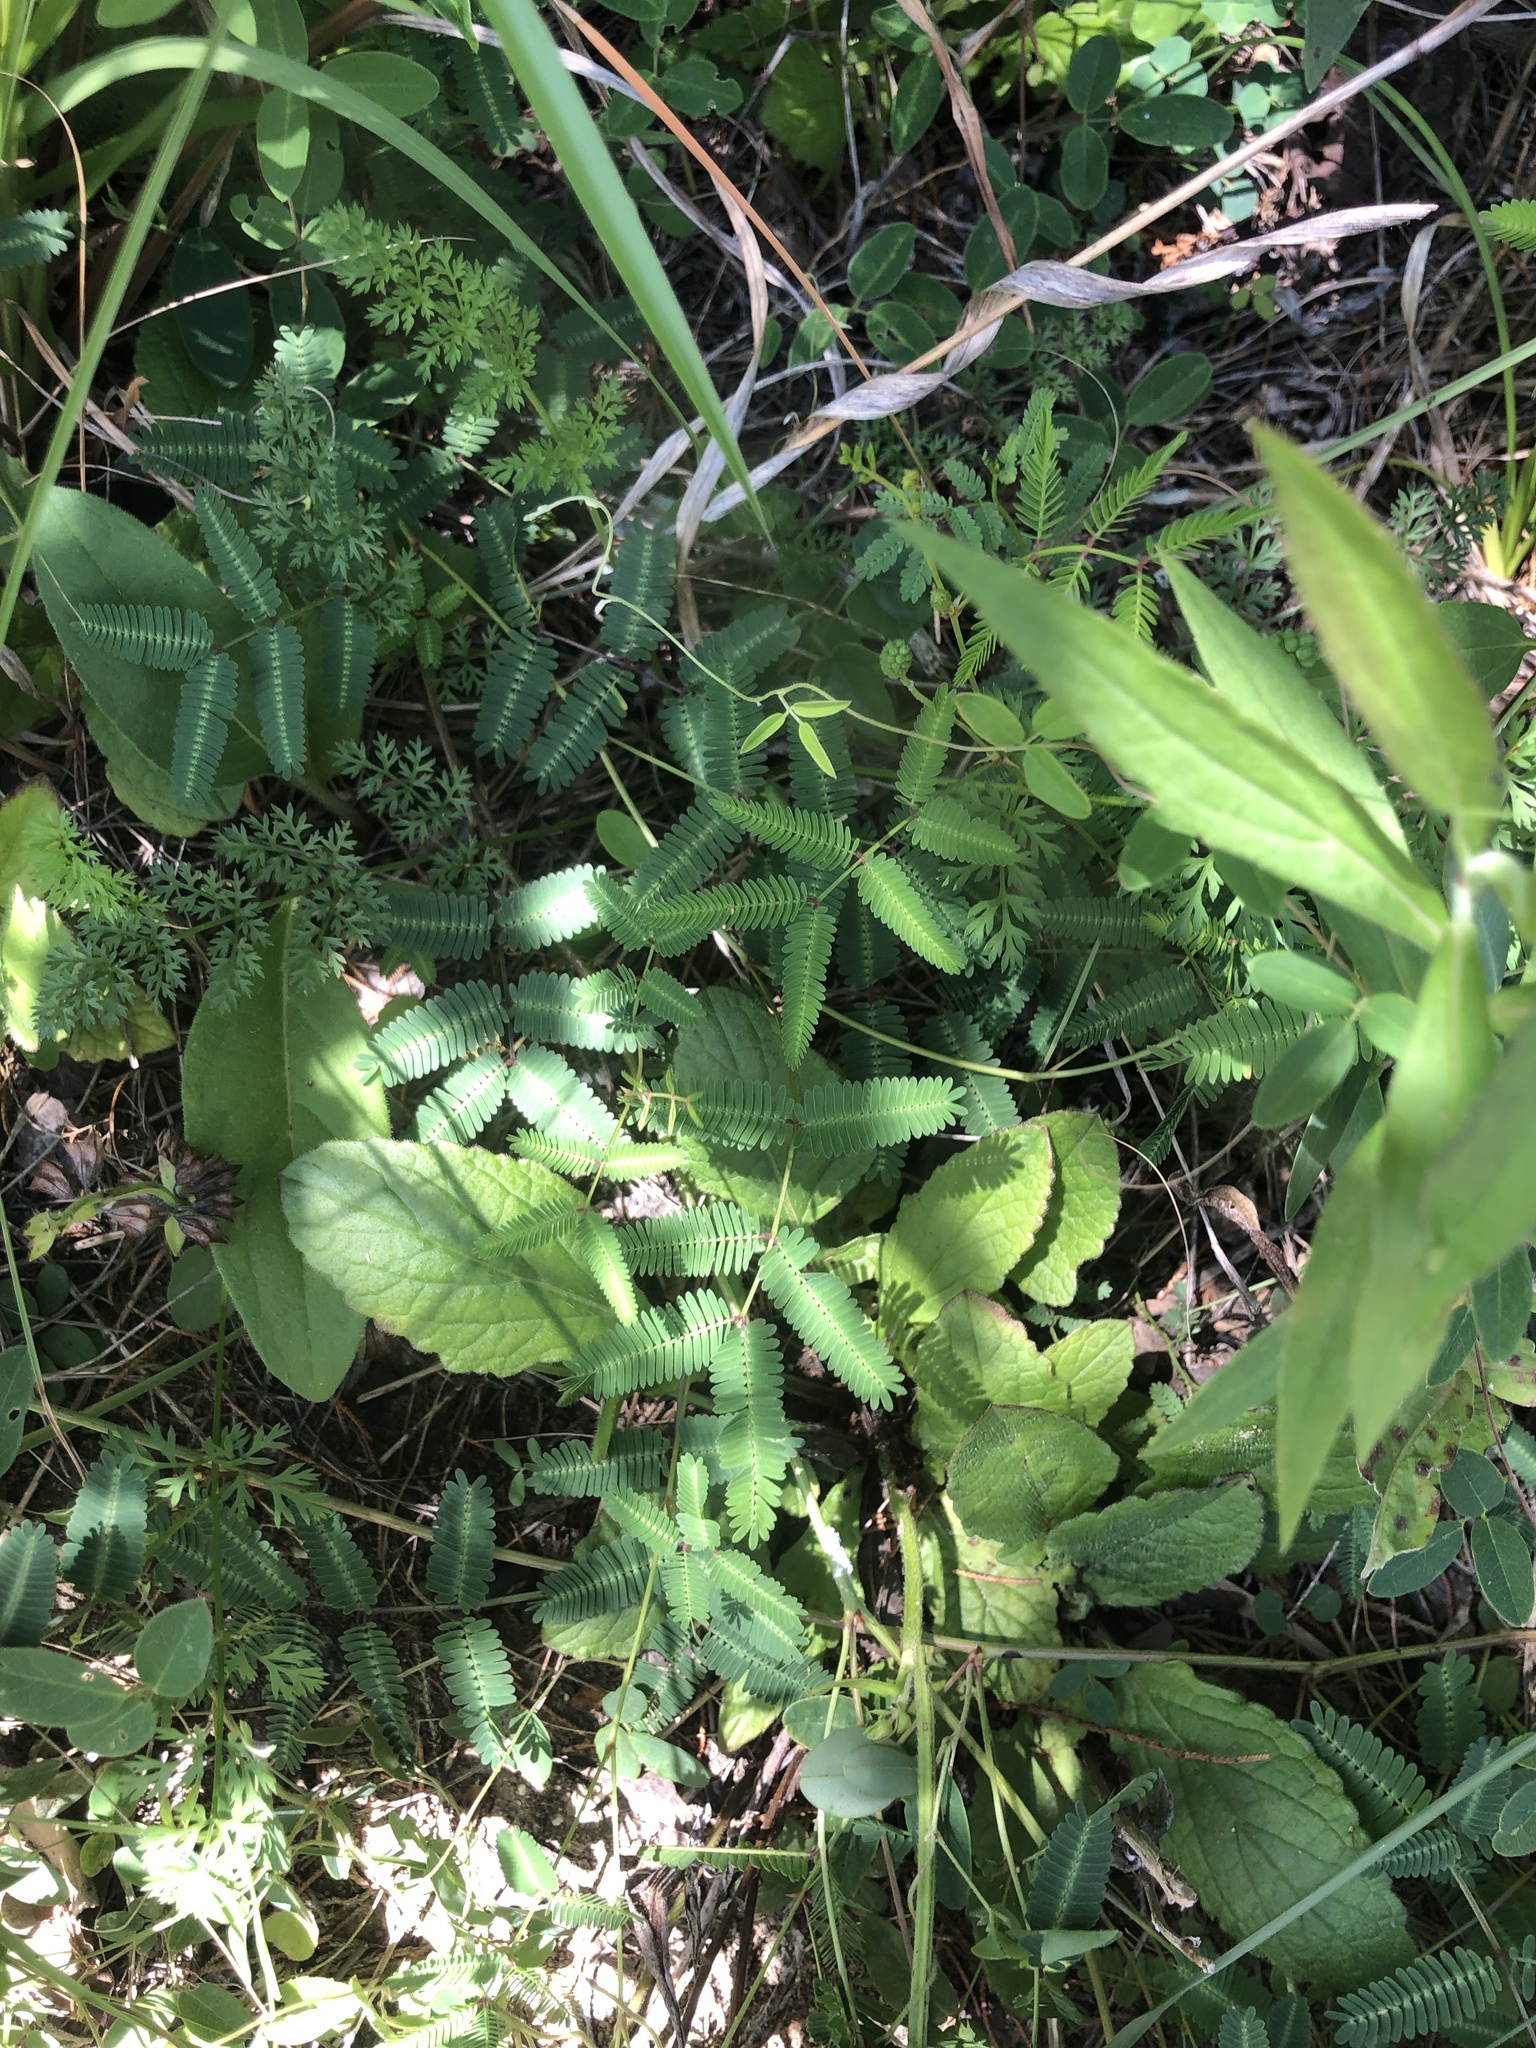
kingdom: Plantae
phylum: Tracheophyta
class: Magnoliopsida
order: Fabales
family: Fabaceae
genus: Neptunia
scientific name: Neptunia lutea
